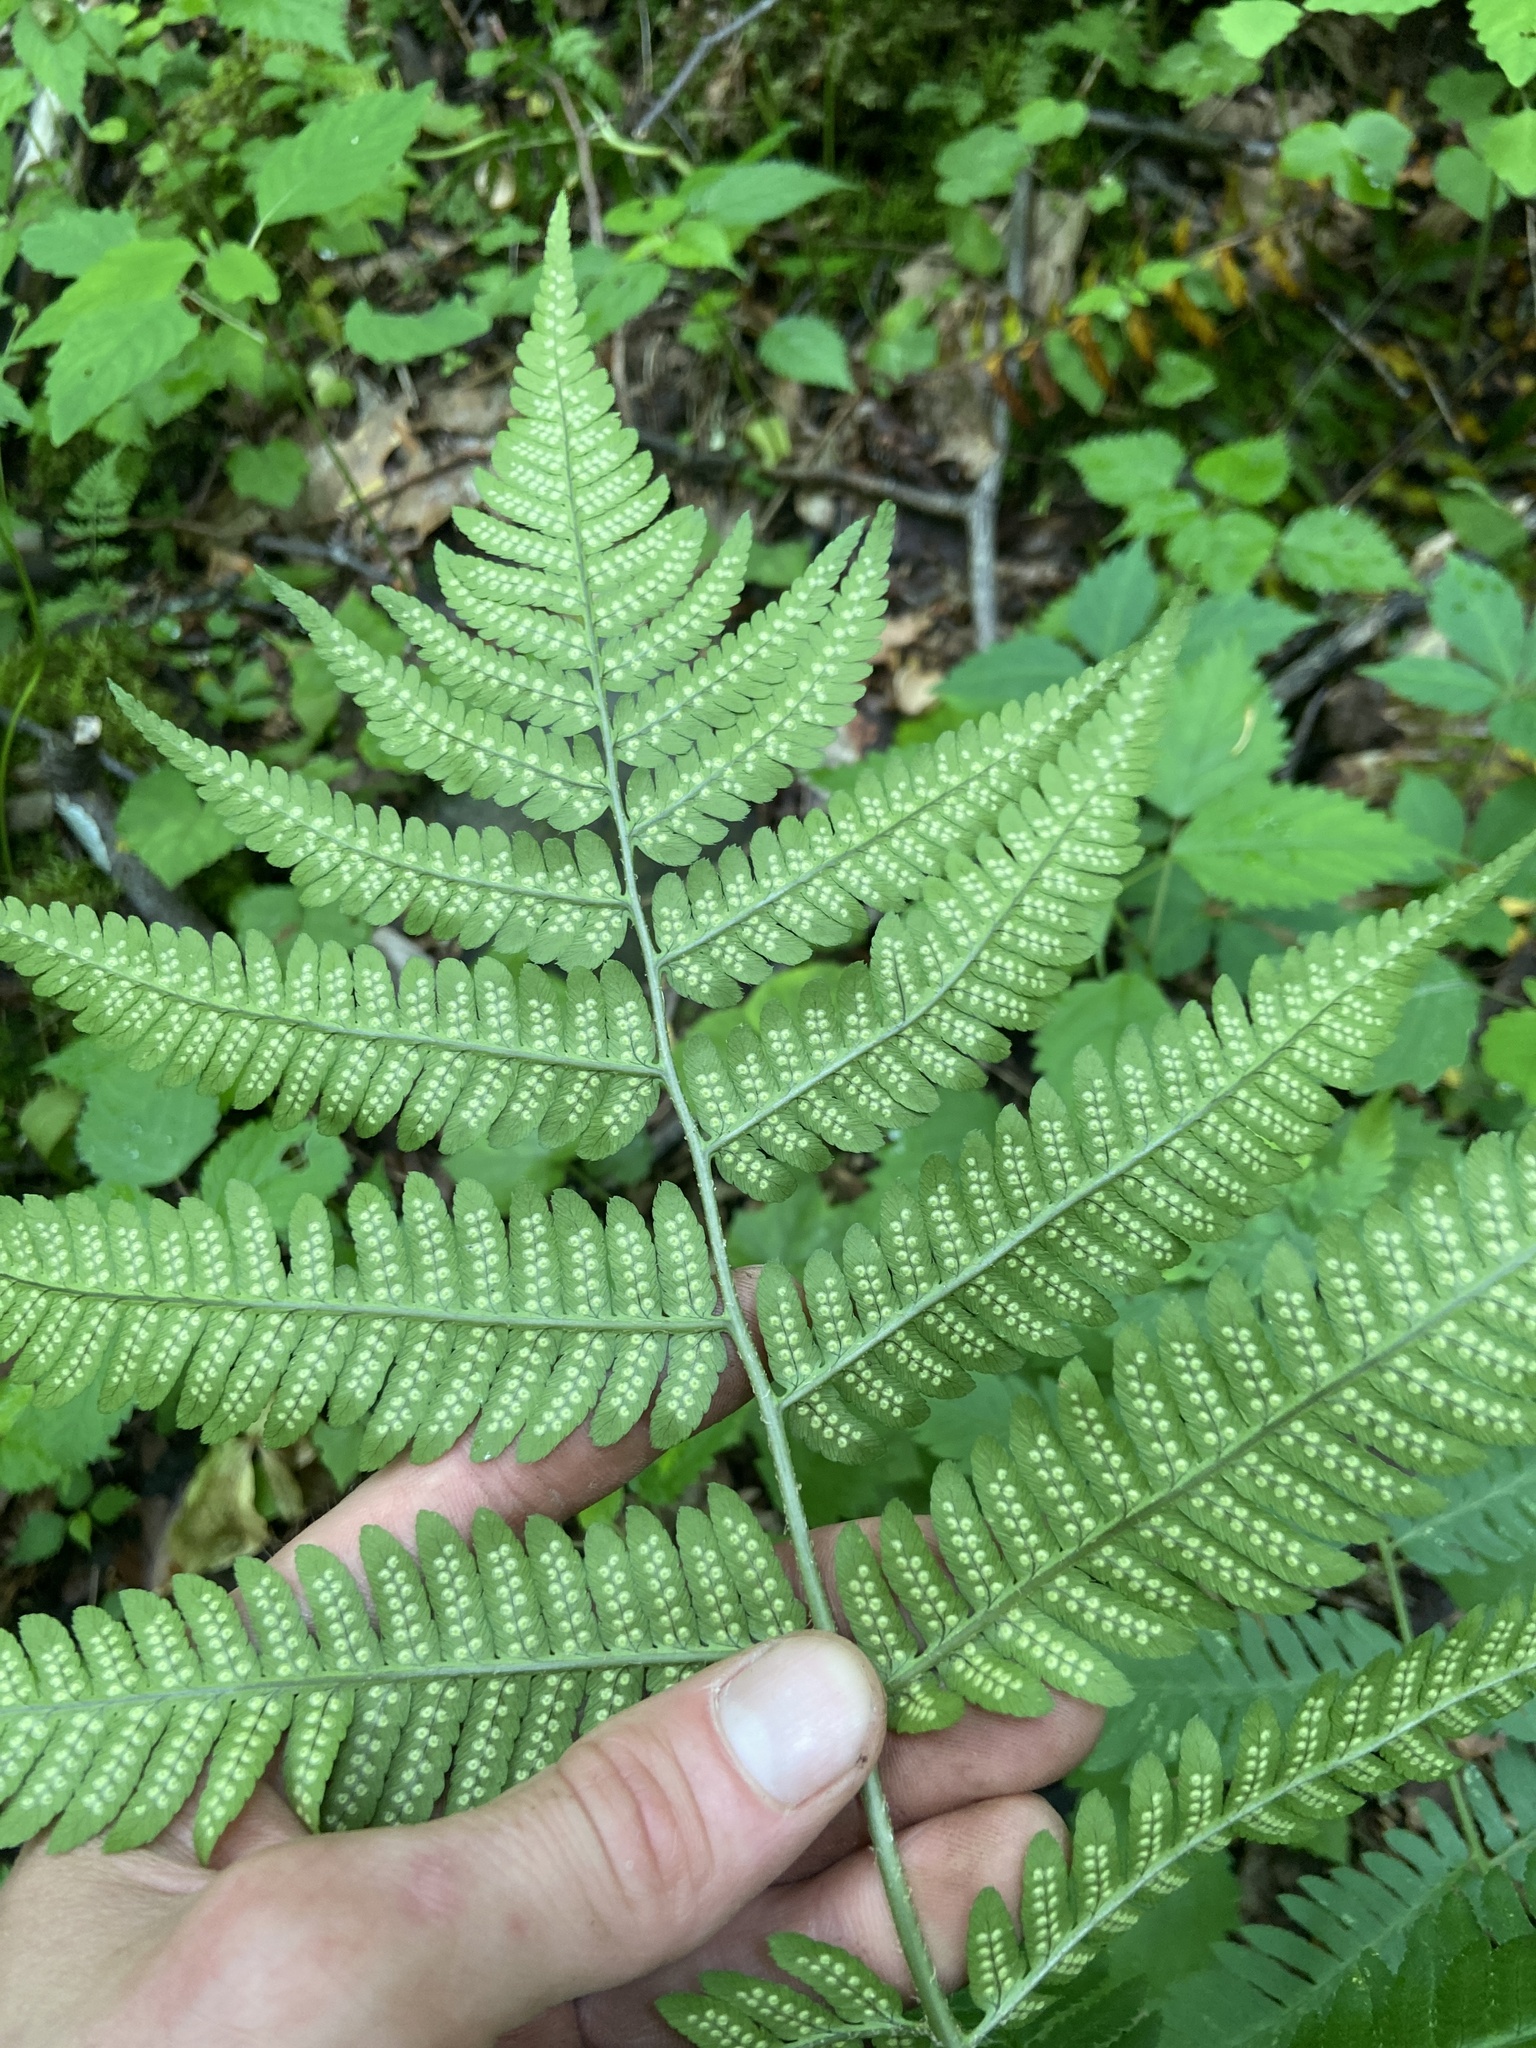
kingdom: Plantae
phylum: Tracheophyta
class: Polypodiopsida
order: Polypodiales
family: Dryopteridaceae
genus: Dryopteris
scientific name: Dryopteris goldieana
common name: Goldie's fern
